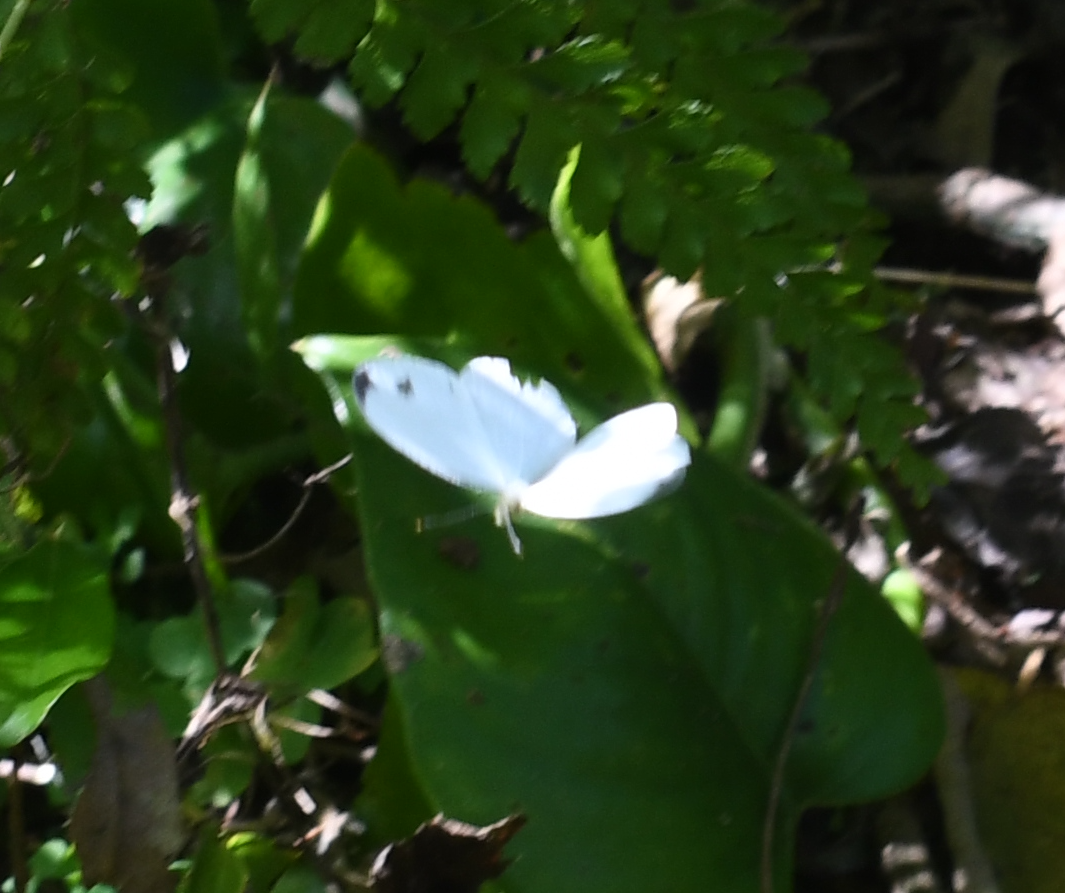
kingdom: Animalia
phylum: Arthropoda
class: Insecta
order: Lepidoptera
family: Pieridae
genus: Leptosia
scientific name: Leptosia nina
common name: Psyche
